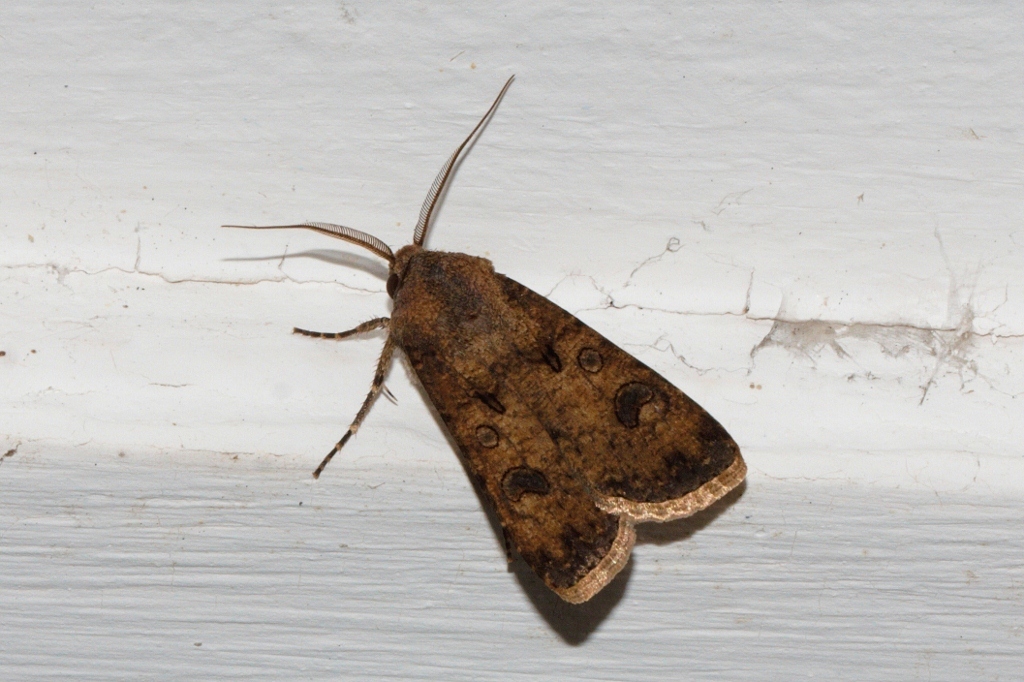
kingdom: Animalia
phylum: Arthropoda
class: Insecta
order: Lepidoptera
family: Noctuidae
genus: Agrotis
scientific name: Agrotis segetum
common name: Turnip moth
